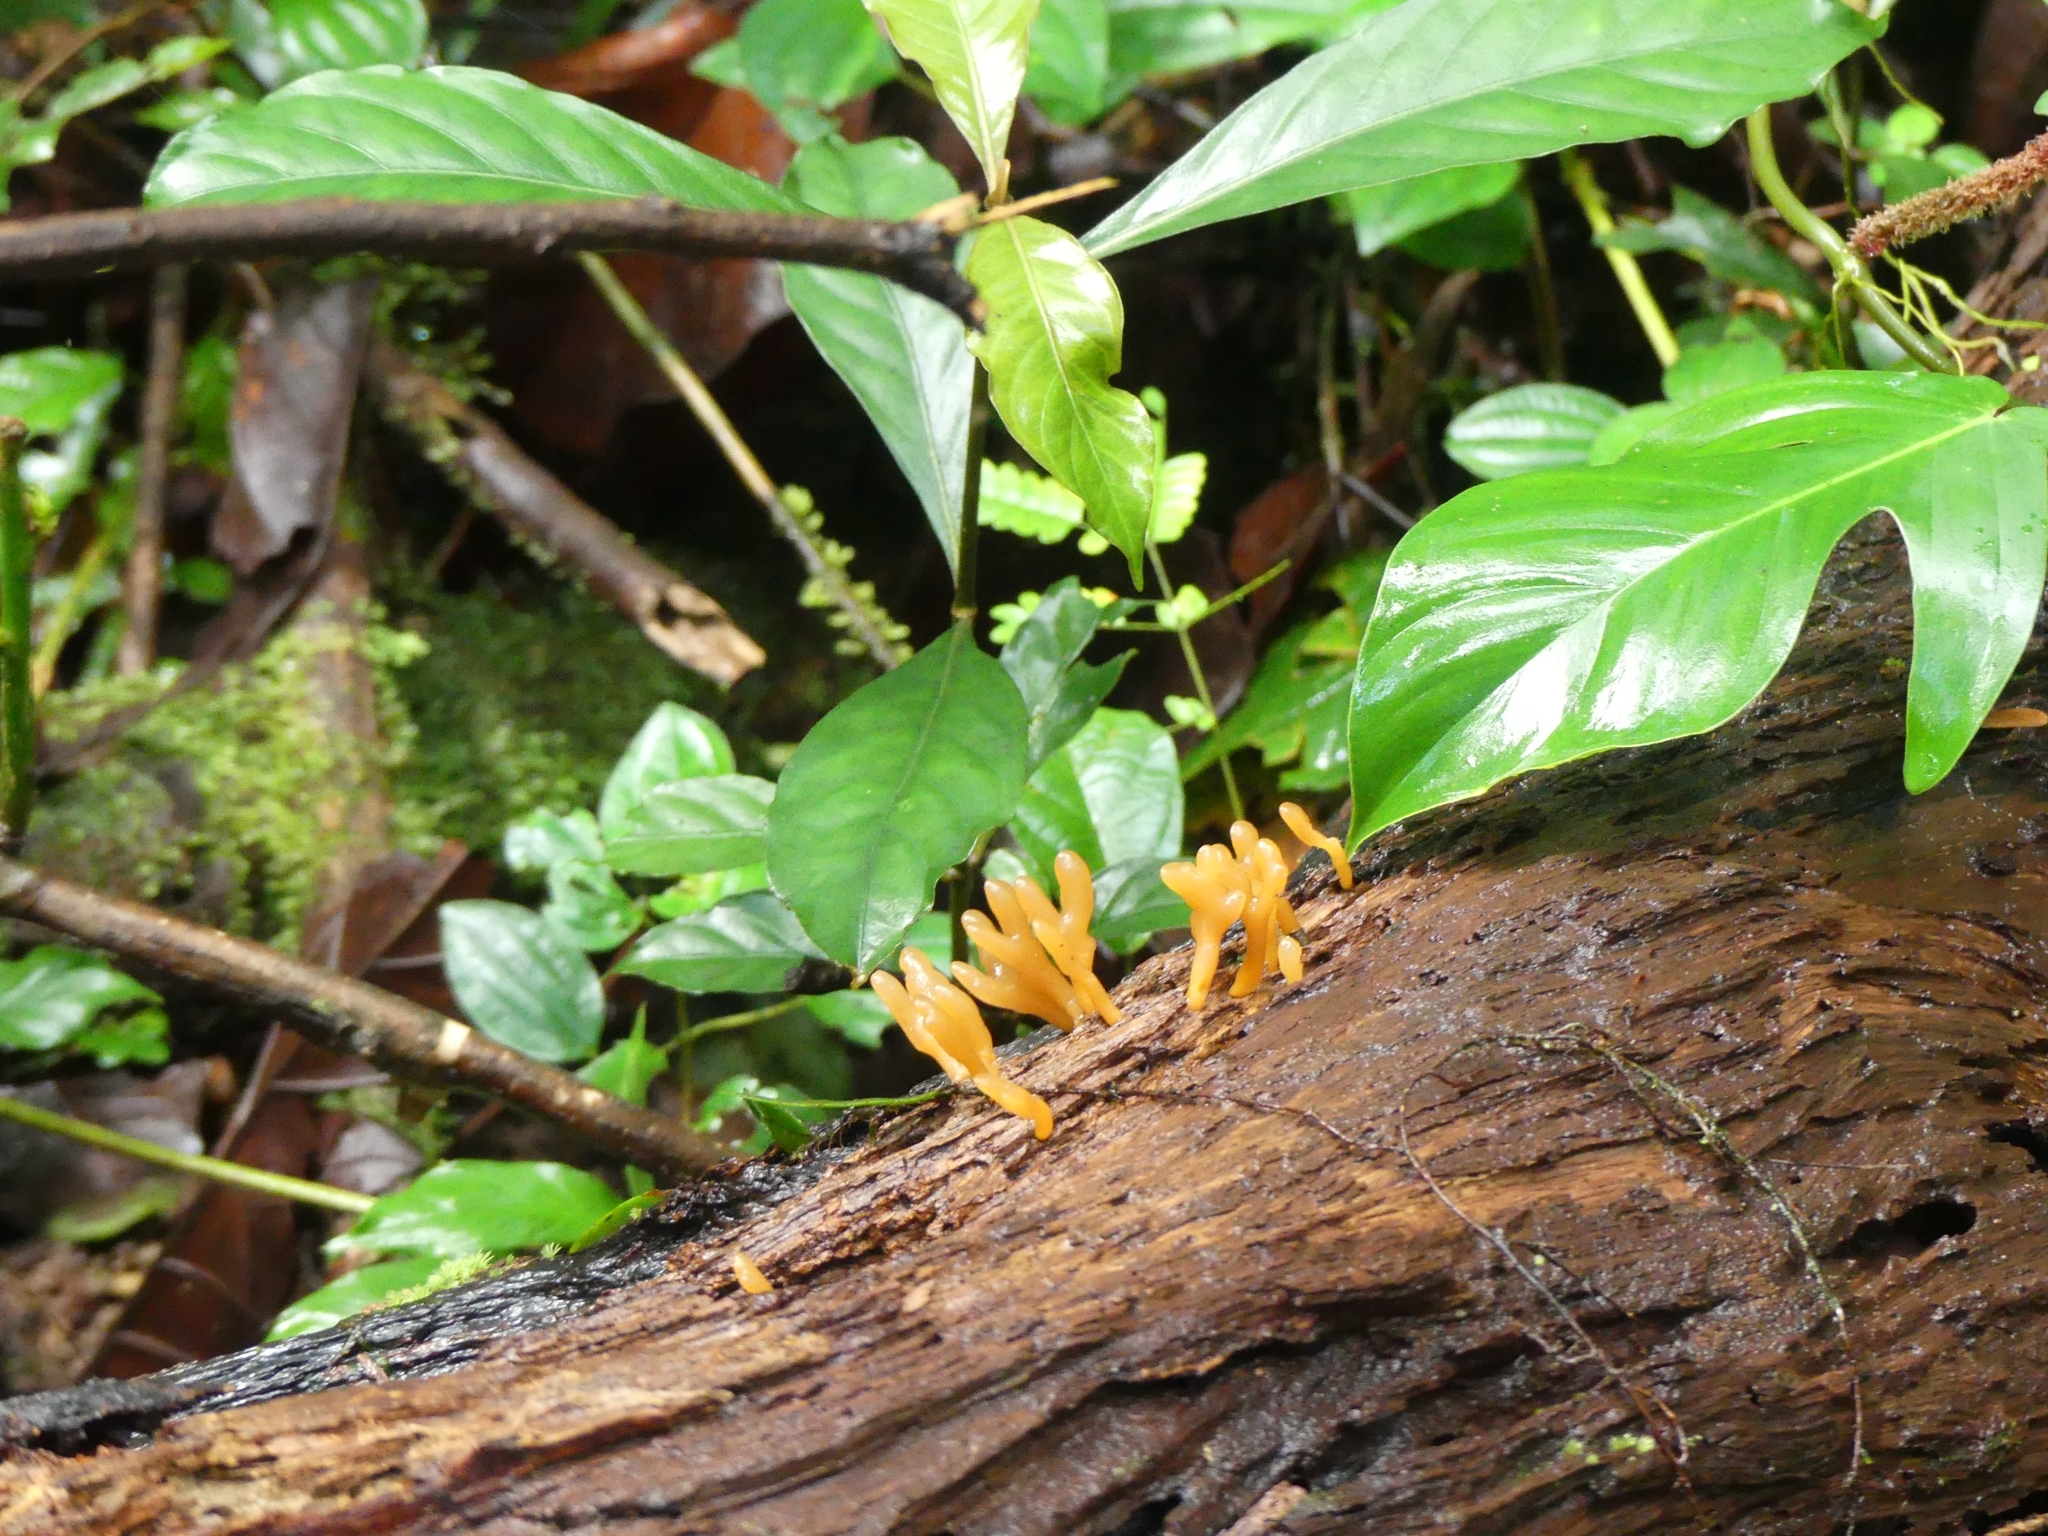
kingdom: Fungi
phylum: Basidiomycota
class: Dacrymycetes
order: Dacrymycetales
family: Dacrymycetaceae
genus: Dacrymyces
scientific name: Dacrymyces spathularius
